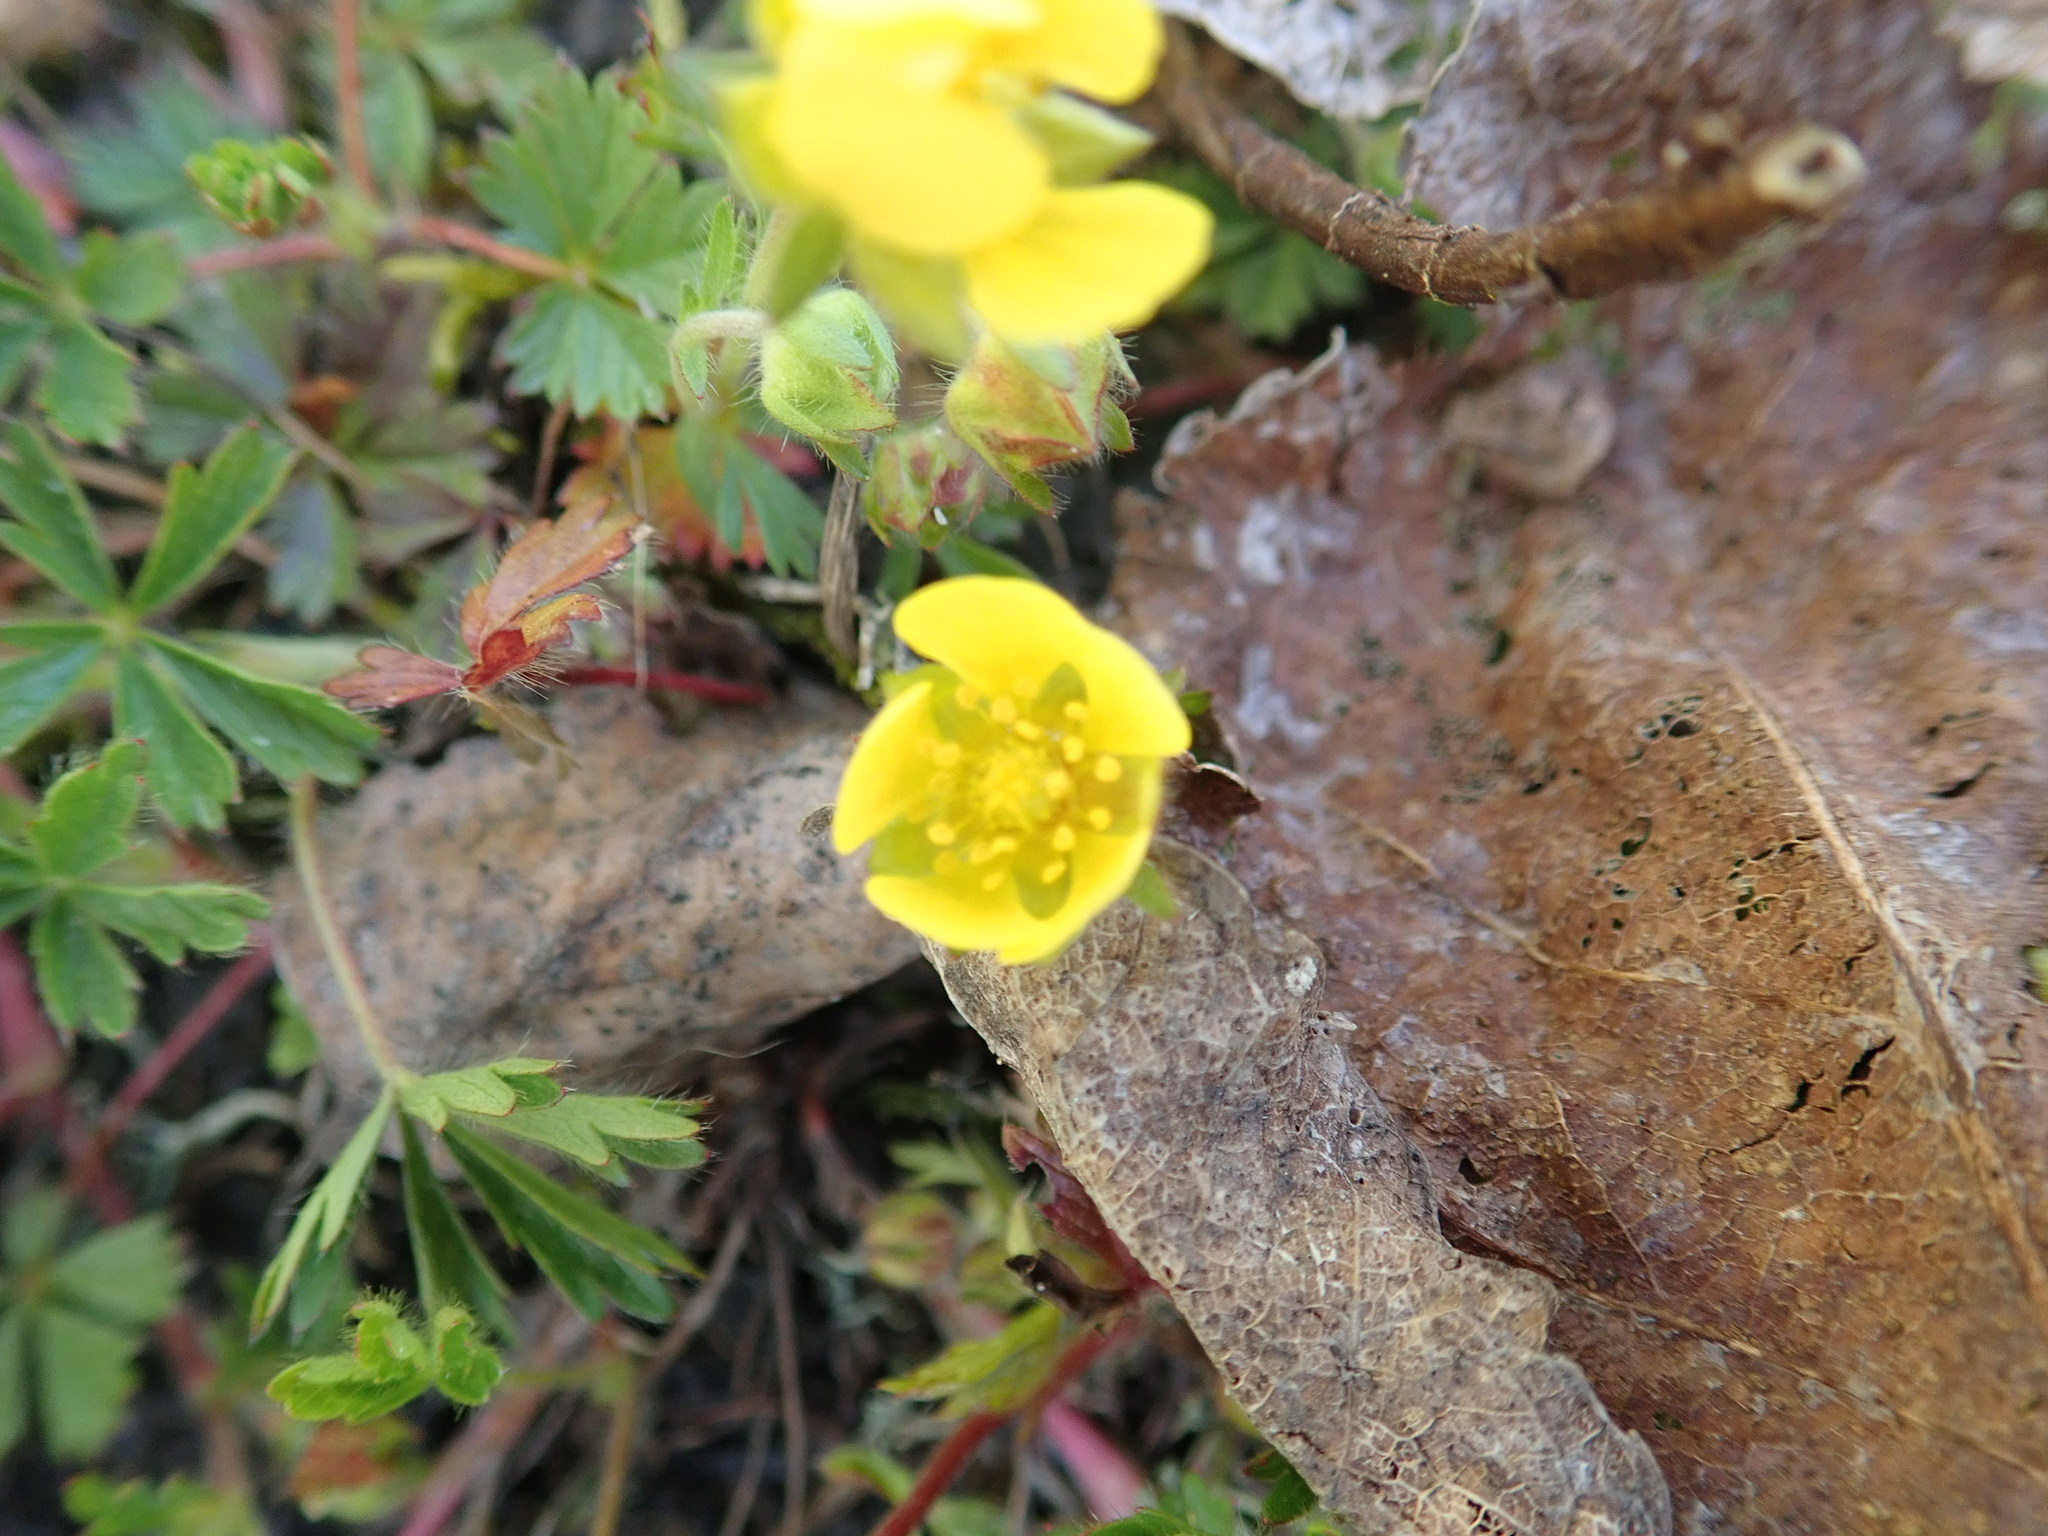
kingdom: Plantae
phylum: Tracheophyta
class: Magnoliopsida
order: Rosales
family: Rosaceae
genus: Potentilla
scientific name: Potentilla verna
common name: Spring cinquefoil
